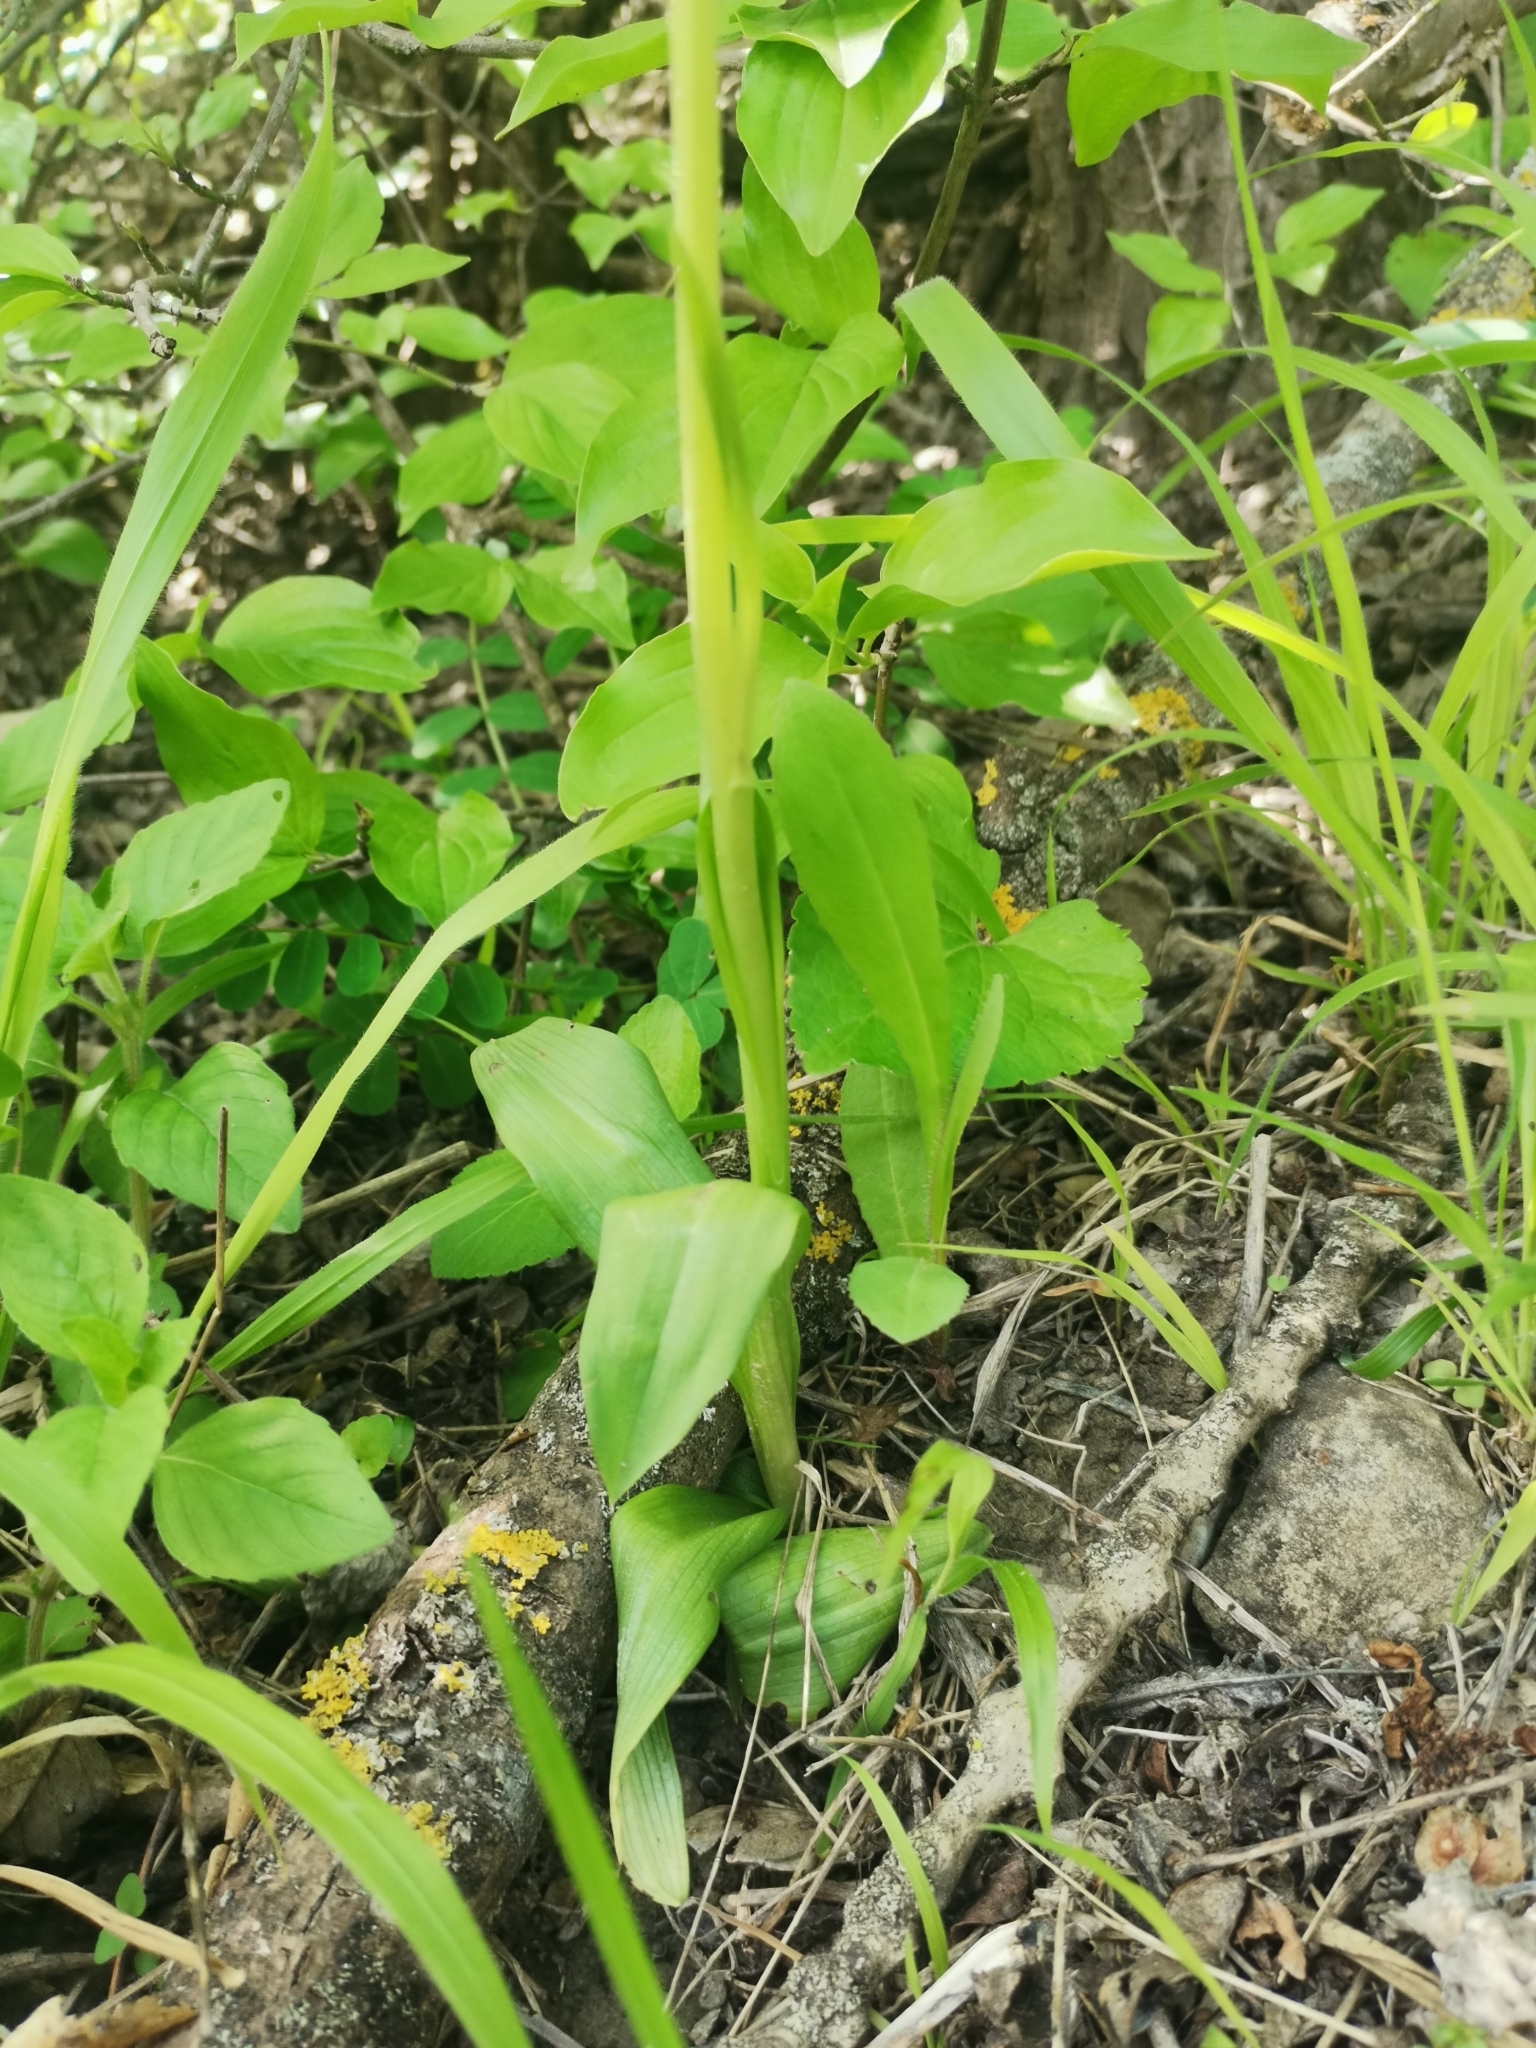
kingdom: Plantae
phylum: Tracheophyta
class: Liliopsida
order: Asparagales
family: Orchidaceae
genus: Ophrys
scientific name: Ophrys sphegodes
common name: Early spider-orchid
